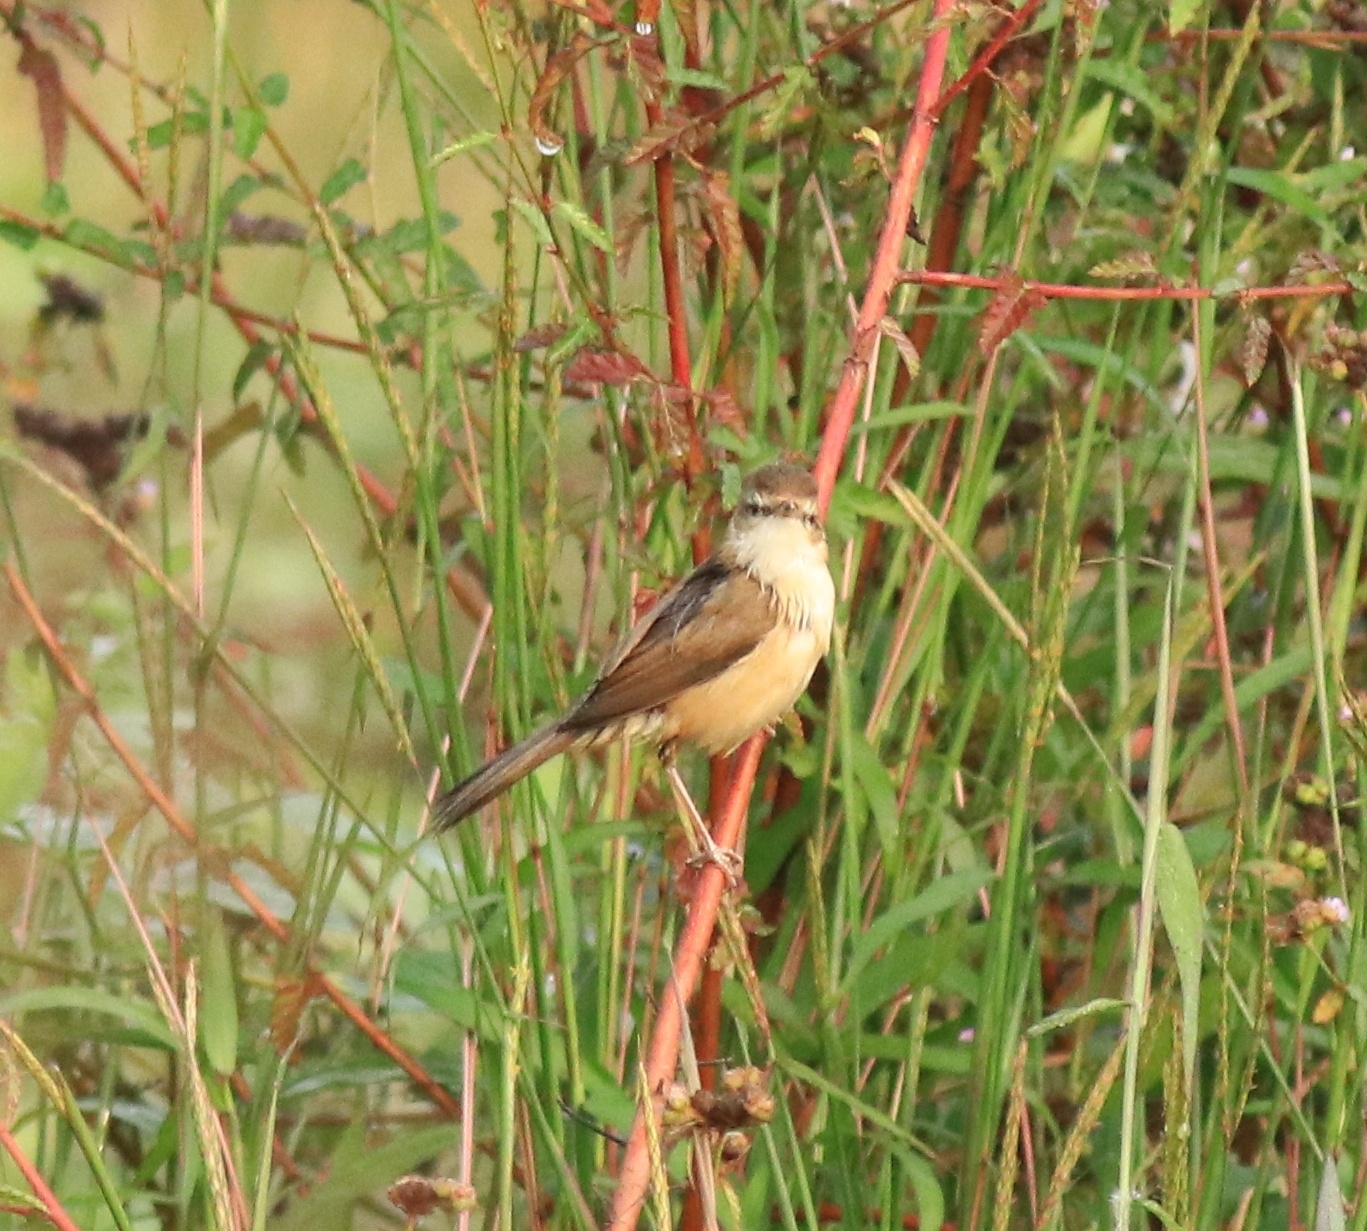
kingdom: Animalia
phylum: Chordata
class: Aves
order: Passeriformes
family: Acrocephalidae
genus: Acrocephalus
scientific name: Acrocephalus agricola
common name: Paddyfield warbler
